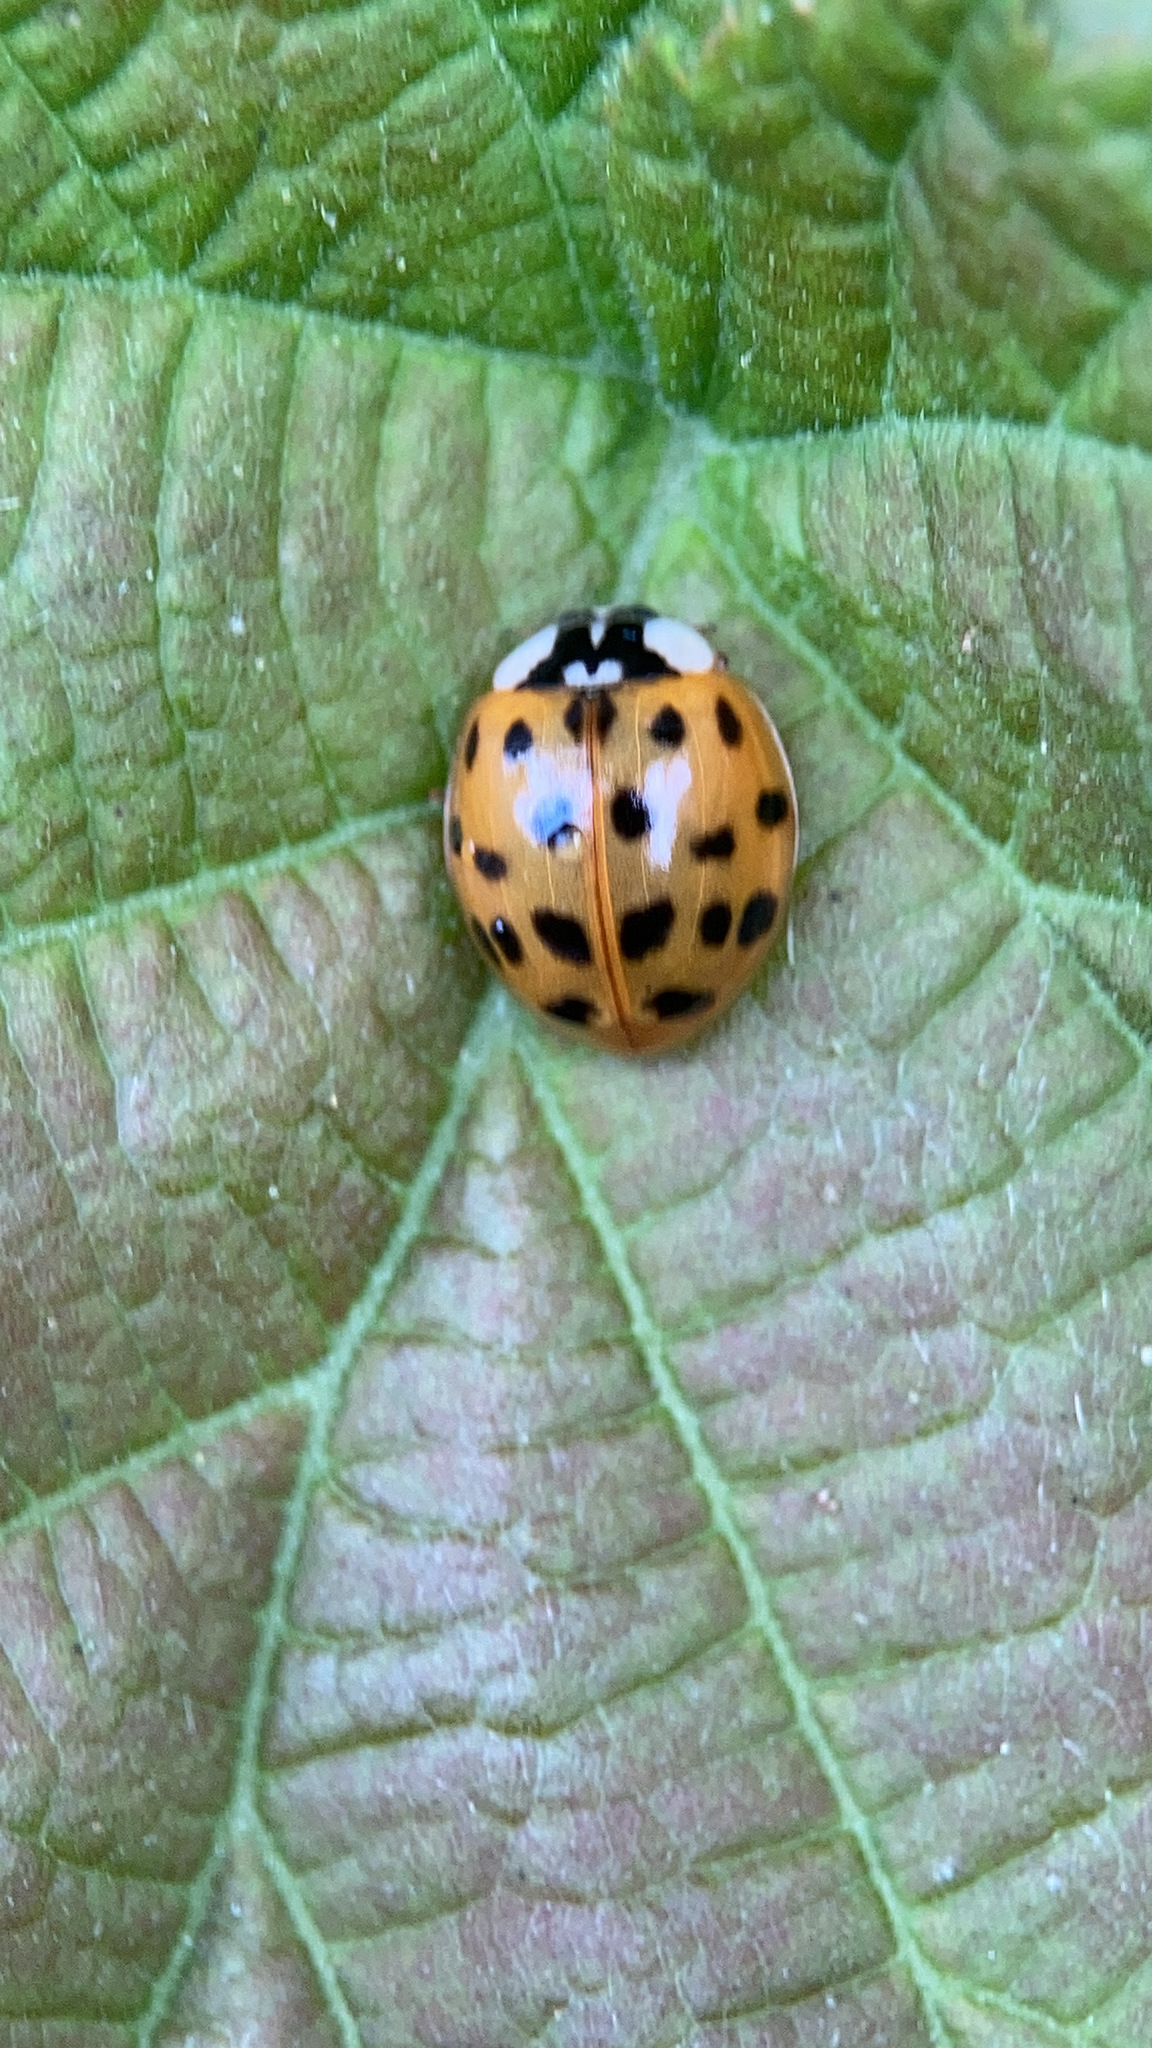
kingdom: Animalia
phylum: Arthropoda
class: Insecta
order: Coleoptera
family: Coccinellidae
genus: Harmonia
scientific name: Harmonia axyridis
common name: Harlequin ladybird
